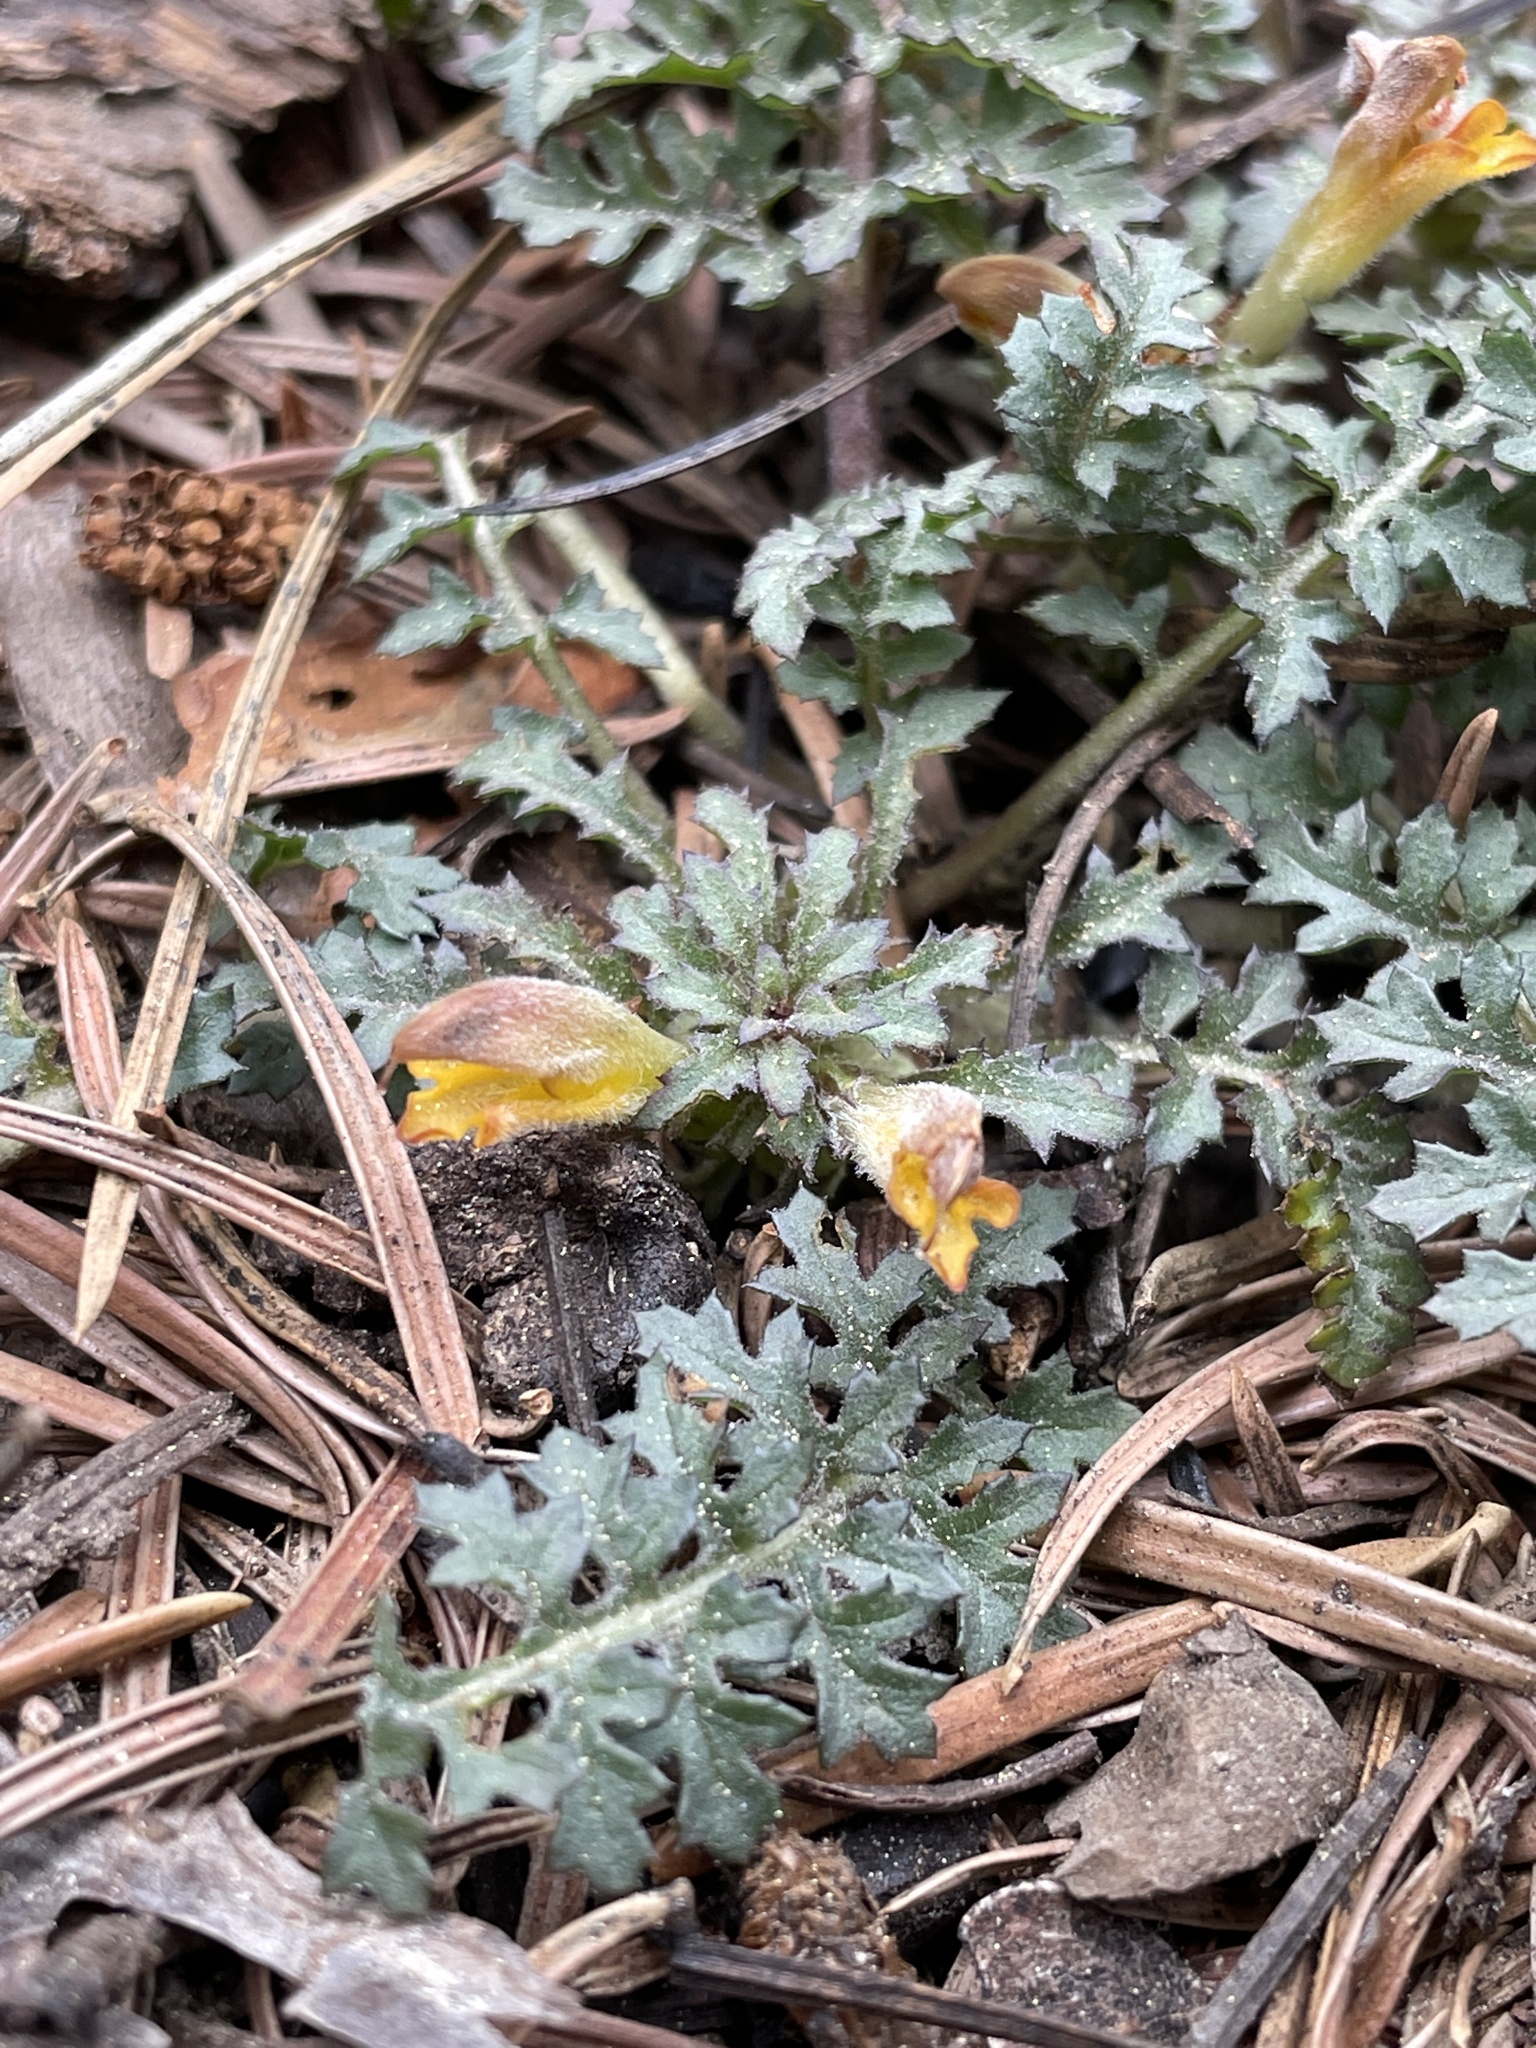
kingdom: Plantae
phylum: Tracheophyta
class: Magnoliopsida
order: Lamiales
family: Orobanchaceae
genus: Pedicularis
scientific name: Pedicularis semibarbata
